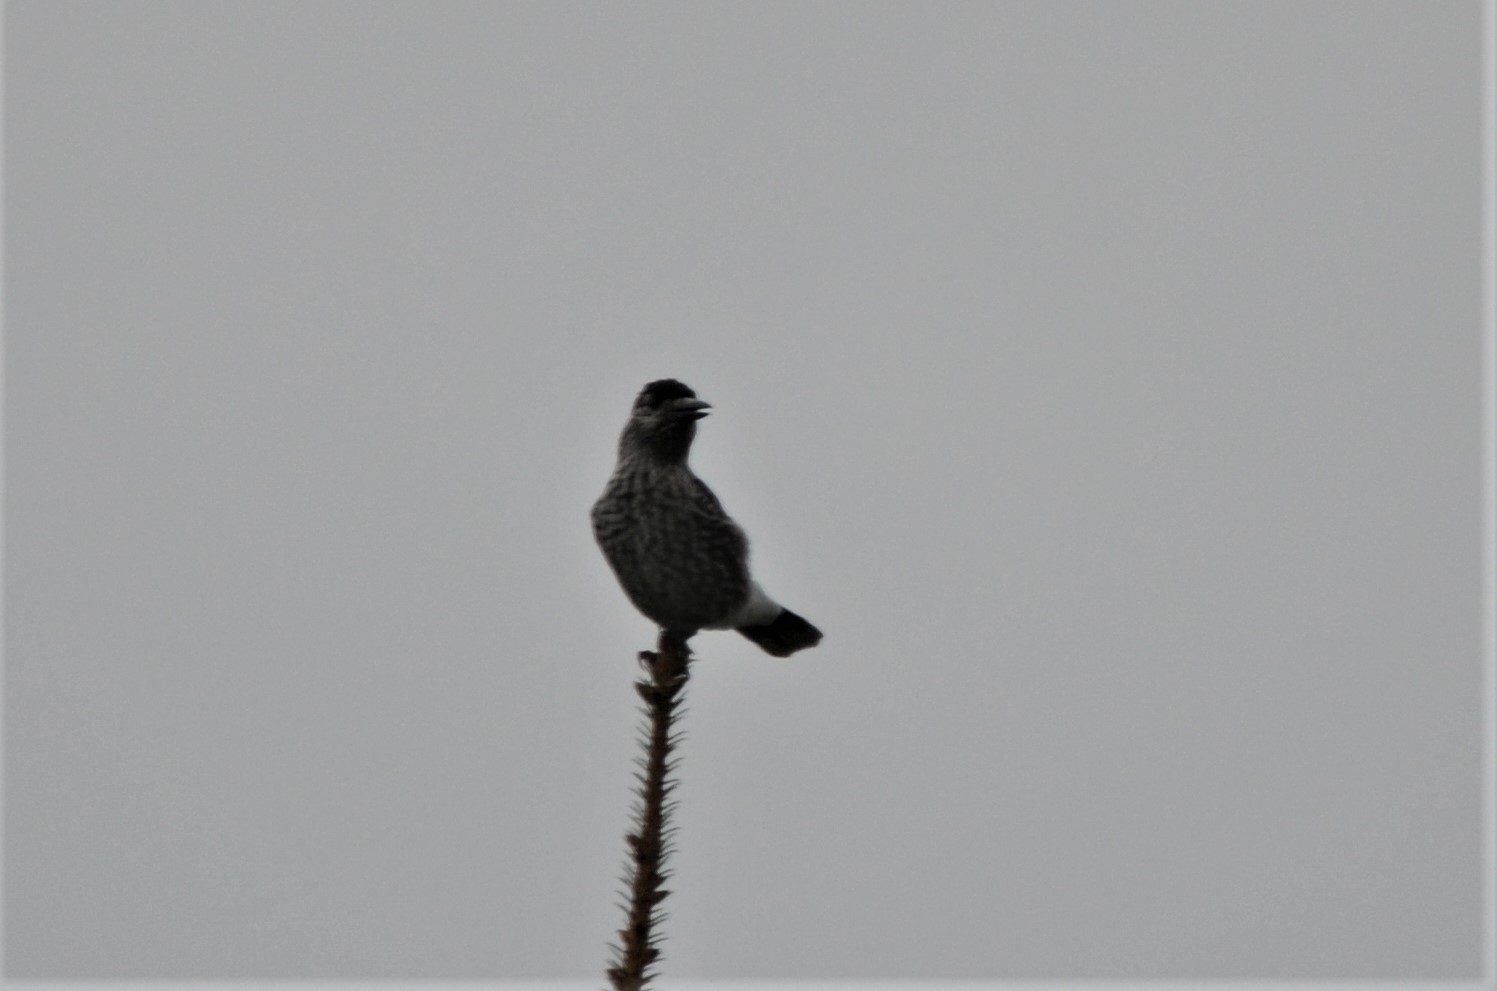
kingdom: Animalia
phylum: Chordata
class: Aves
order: Passeriformes
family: Corvidae
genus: Nucifraga
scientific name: Nucifraga caryocatactes
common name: Spotted nutcracker
